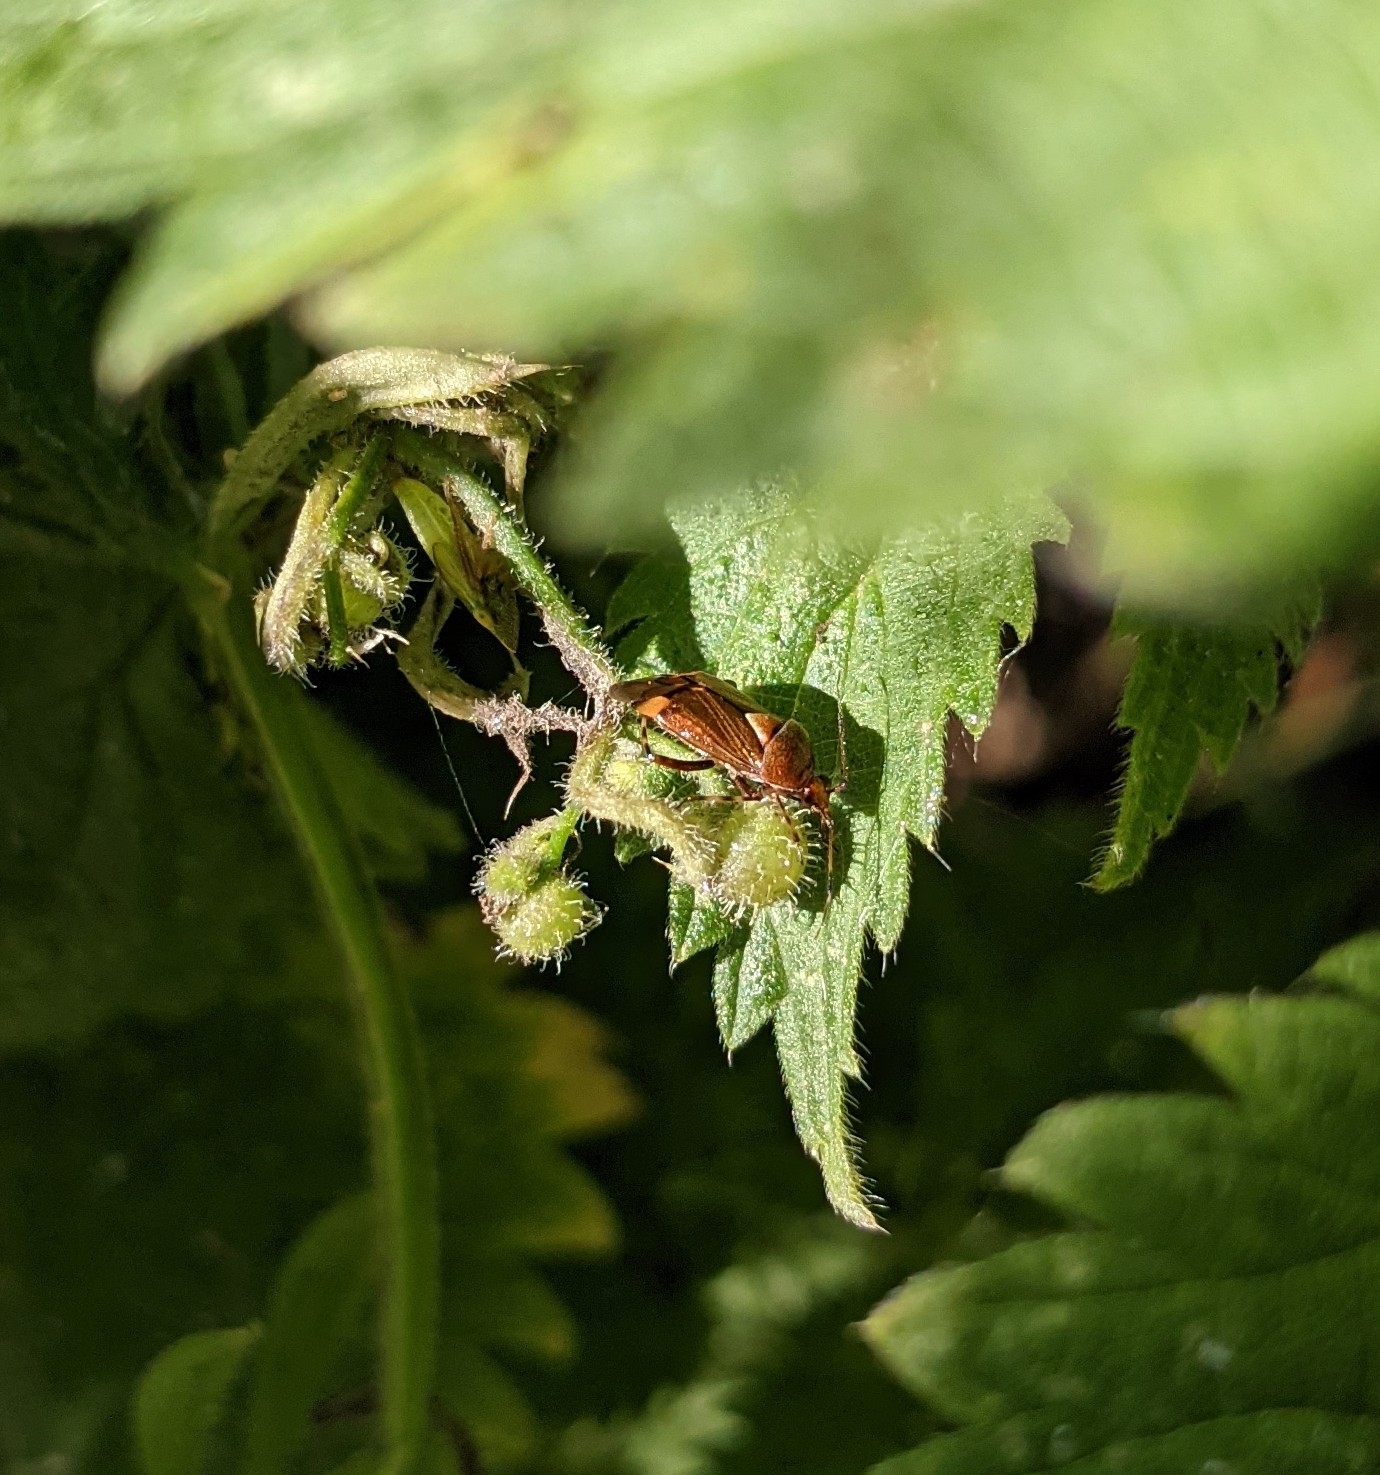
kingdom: Animalia
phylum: Arthropoda
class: Insecta
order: Hemiptera
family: Miridae
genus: Deraeocoris
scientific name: Deraeocoris flavilinea
